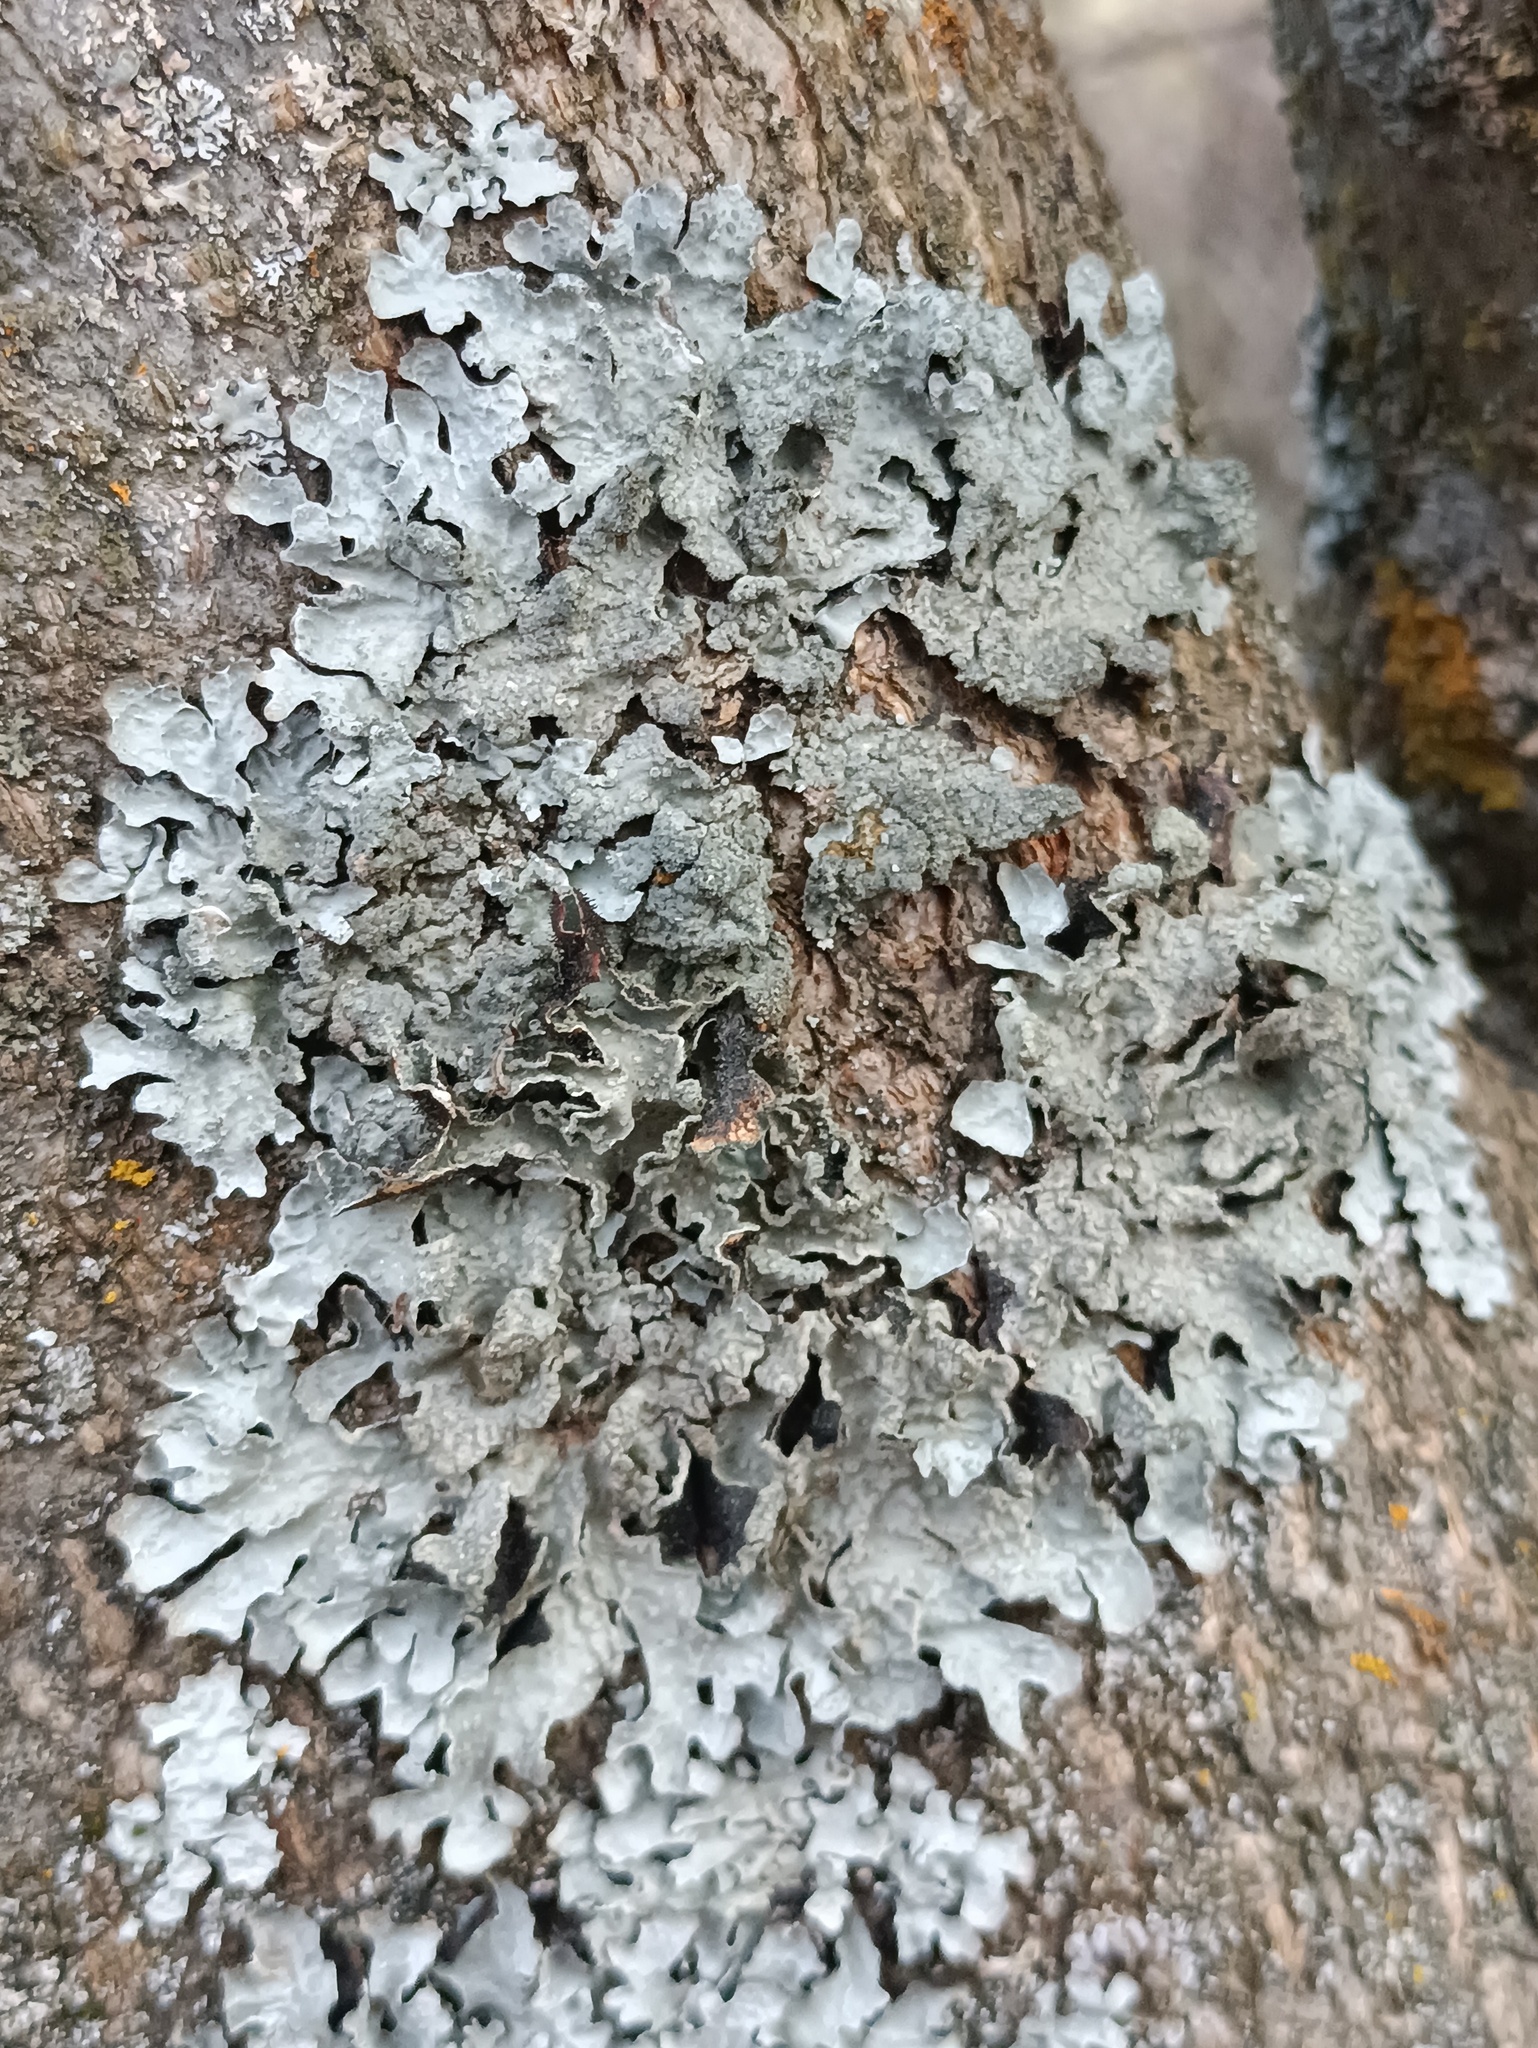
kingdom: Fungi
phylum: Ascomycota
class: Lecanoromycetes
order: Lecanorales
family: Parmeliaceae
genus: Parmelia
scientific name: Parmelia sulcata
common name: Netted shield lichen
